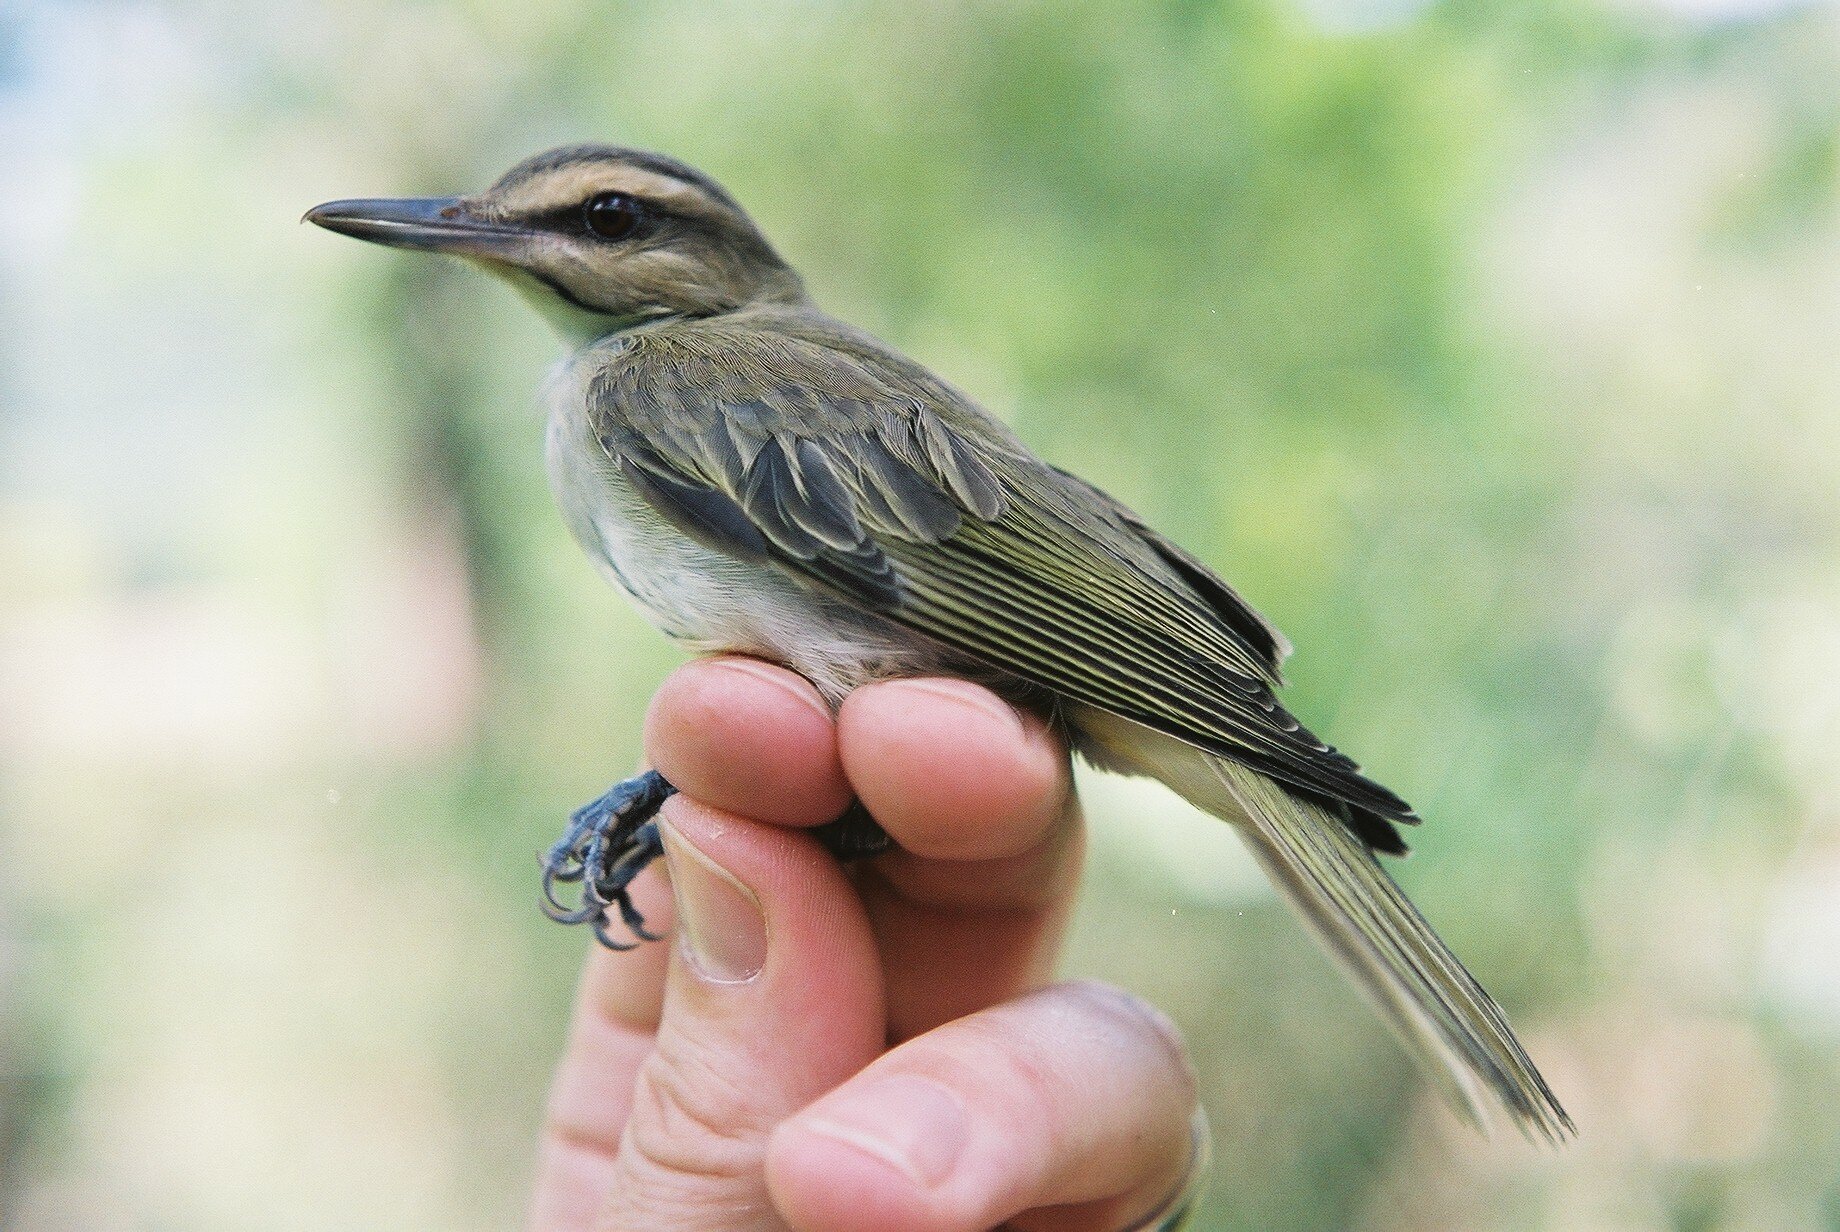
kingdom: Animalia
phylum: Chordata
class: Aves
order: Passeriformes
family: Vireonidae
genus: Vireo
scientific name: Vireo altiloquus
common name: Black-whiskered vireo
